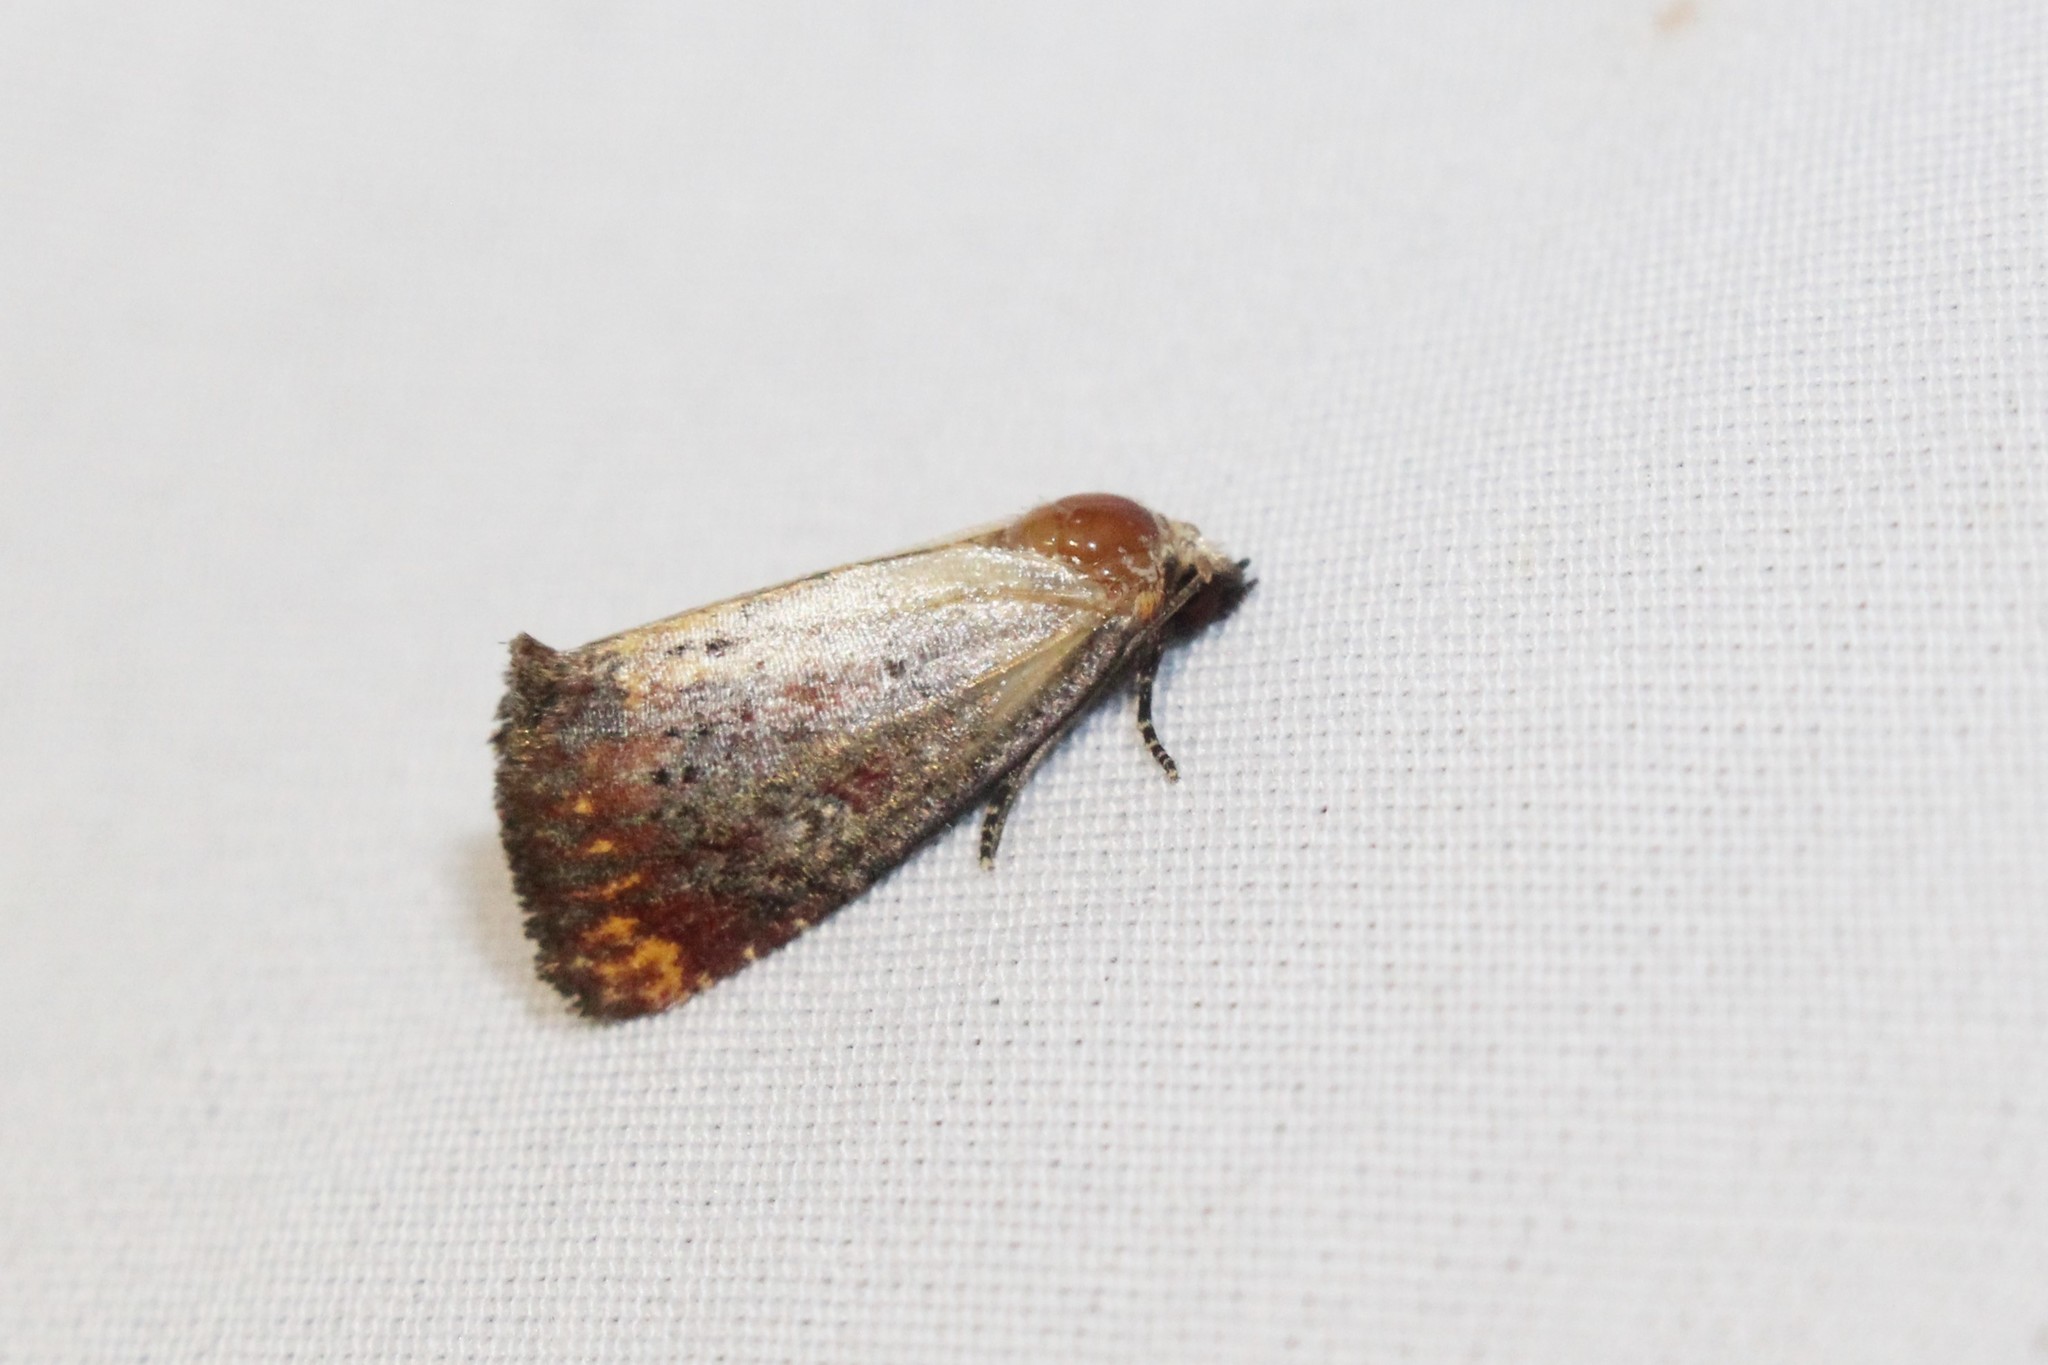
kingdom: Animalia
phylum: Arthropoda
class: Insecta
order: Lepidoptera
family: Noctuidae
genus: Achatodes
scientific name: Achatodes zeae
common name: Elder shoot borer
